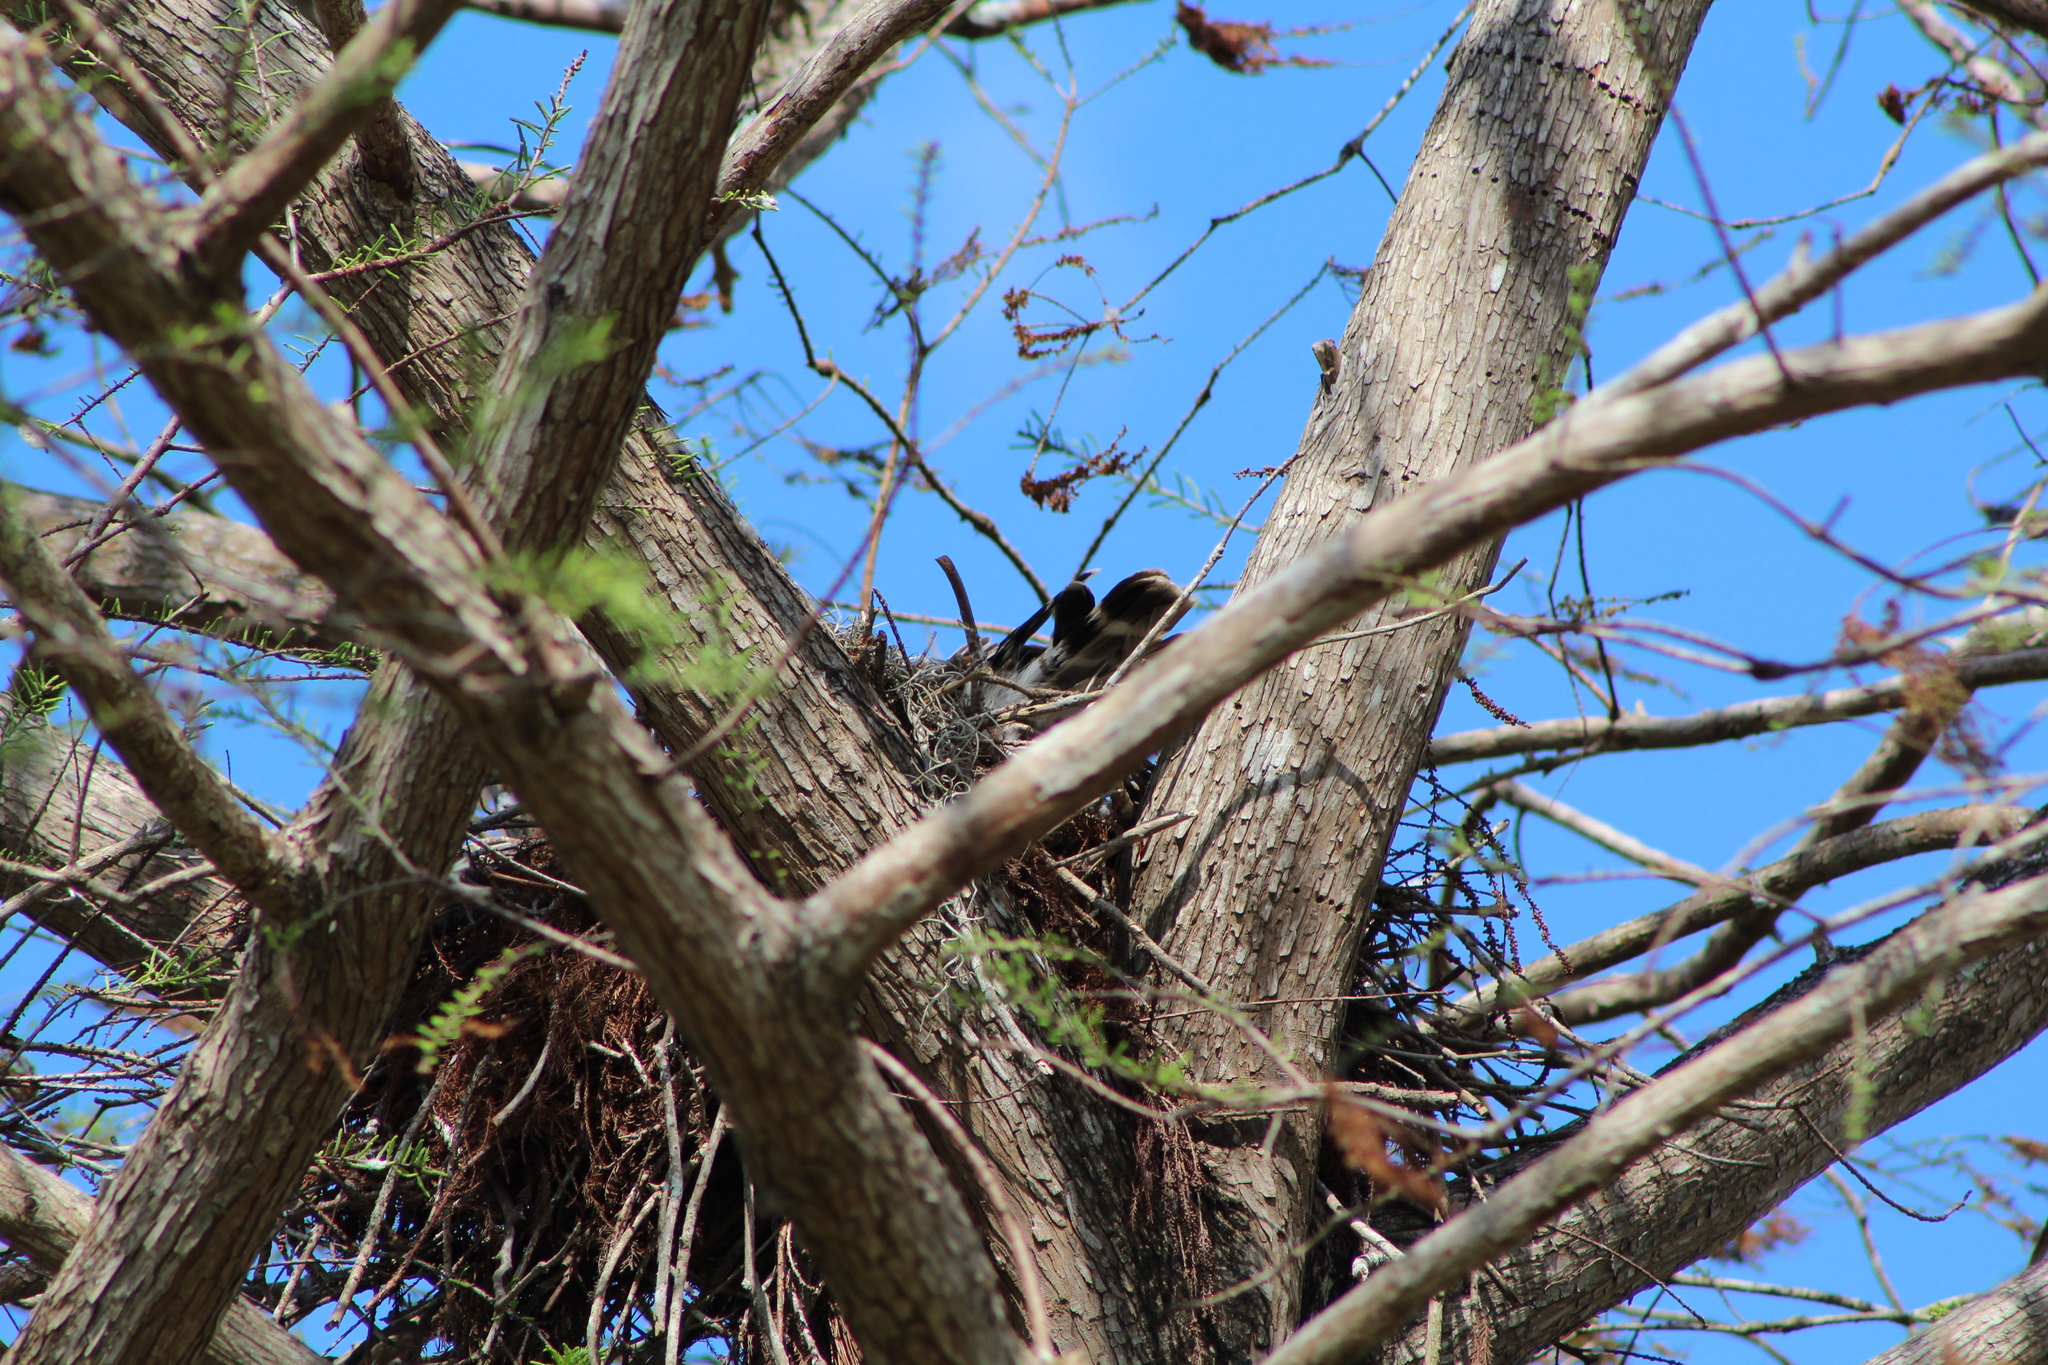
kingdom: Animalia
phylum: Chordata
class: Aves
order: Accipitriformes
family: Accipitridae
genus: Buteo
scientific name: Buteo lineatus
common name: Red-shouldered hawk
